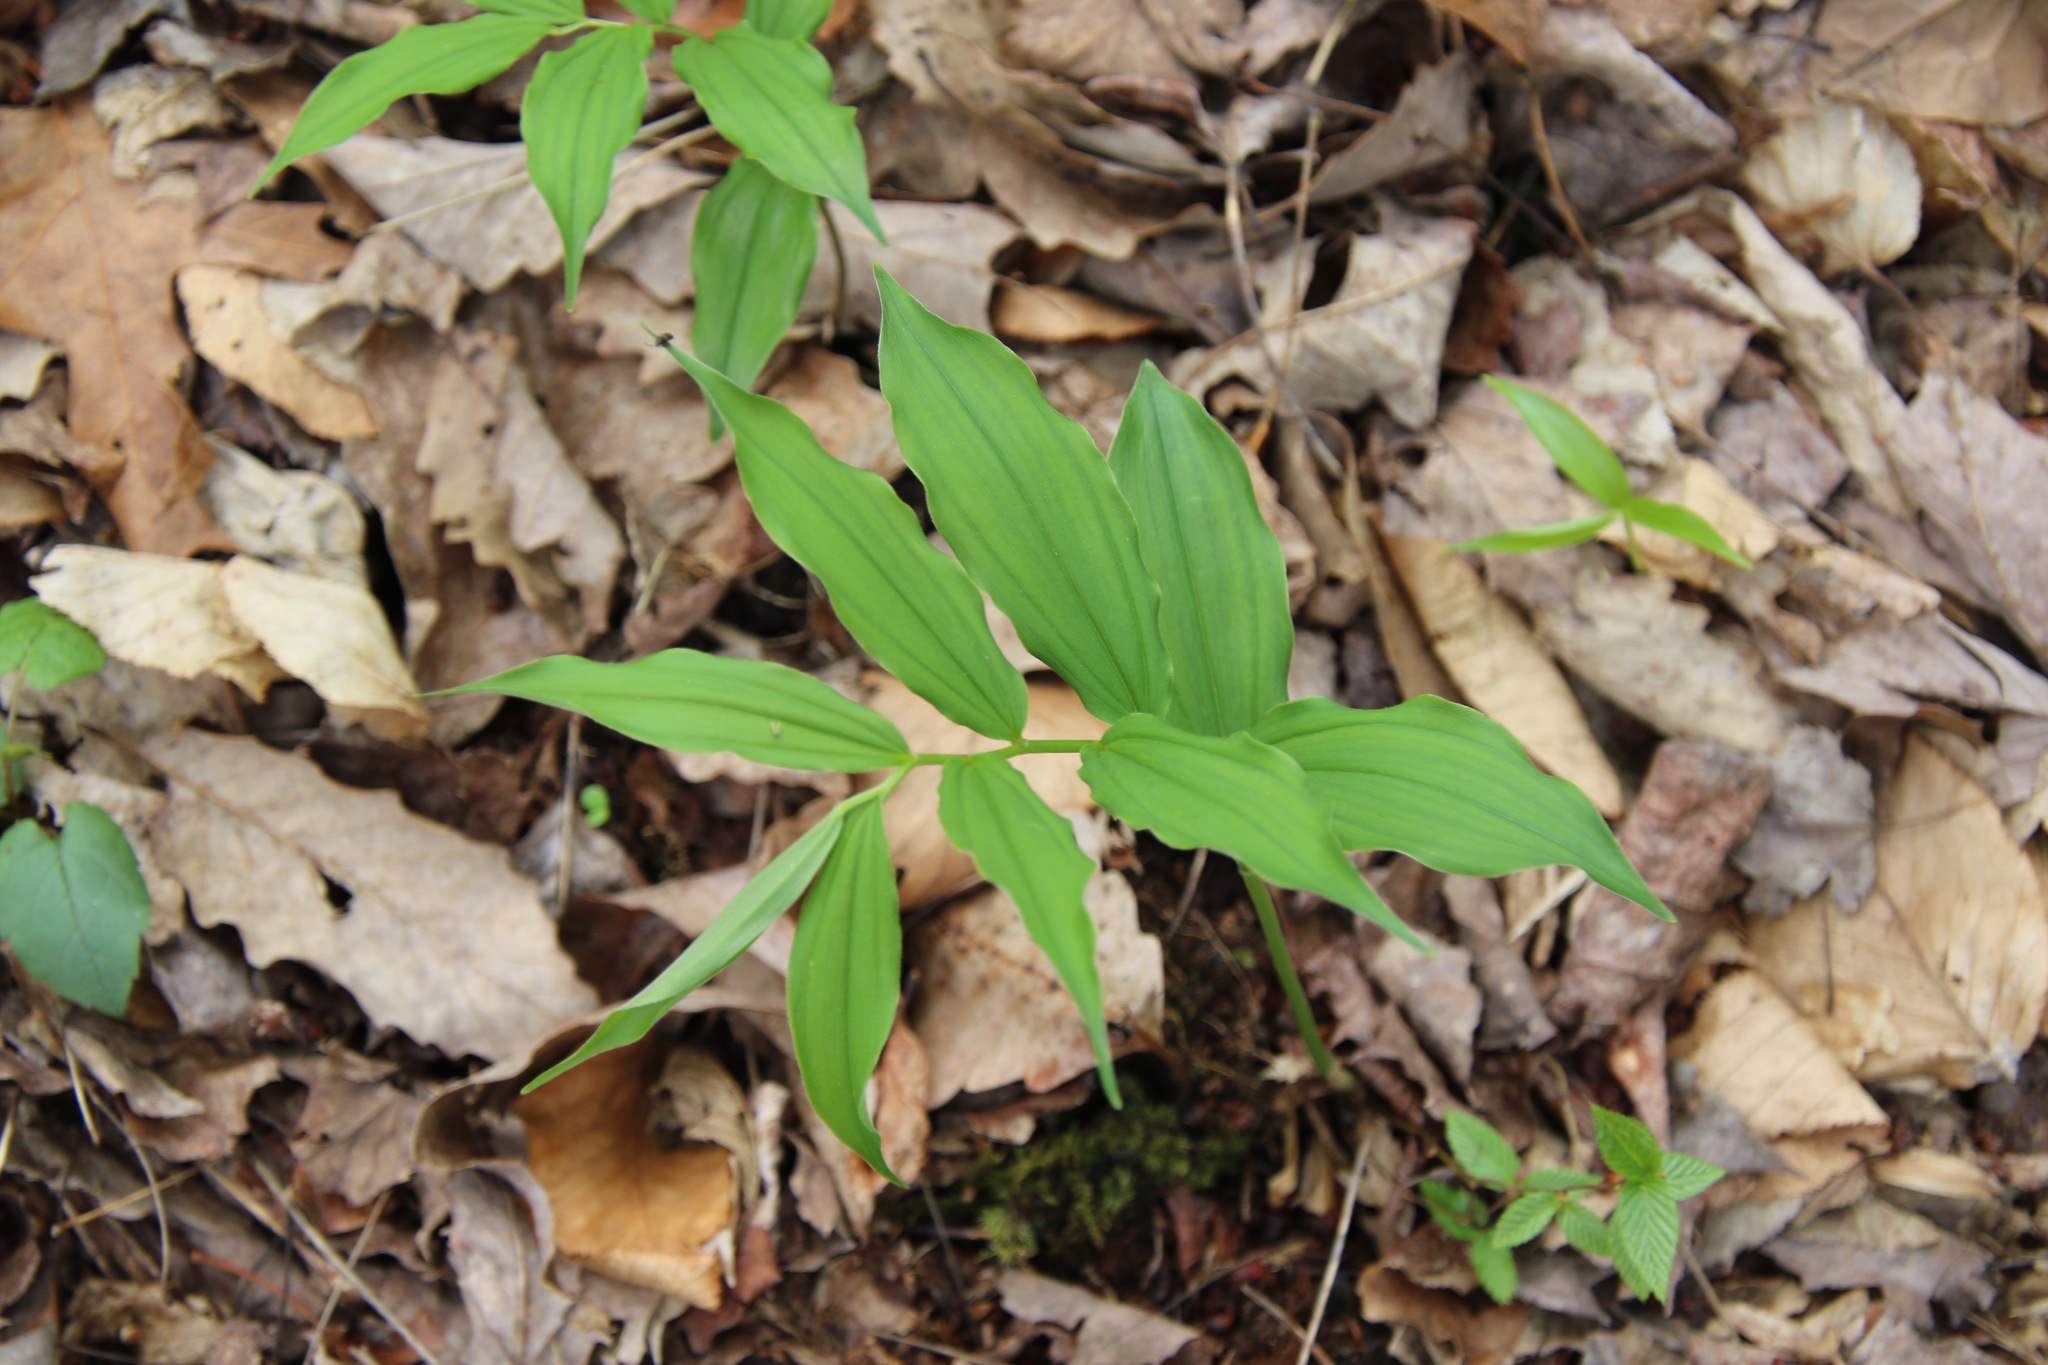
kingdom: Plantae
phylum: Tracheophyta
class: Liliopsida
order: Asparagales
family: Asparagaceae
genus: Maianthemum
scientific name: Maianthemum racemosum
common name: False spikenard
